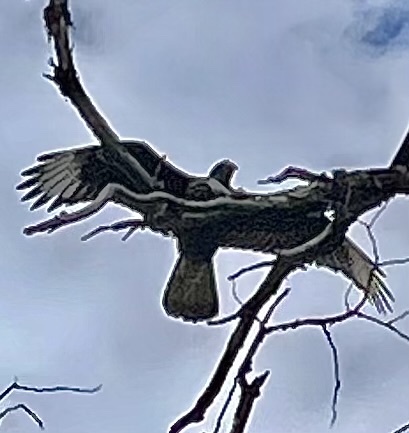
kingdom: Animalia
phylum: Chordata
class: Aves
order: Falconiformes
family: Falconidae
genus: Caracara
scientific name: Caracara plancus
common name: Southern caracara
